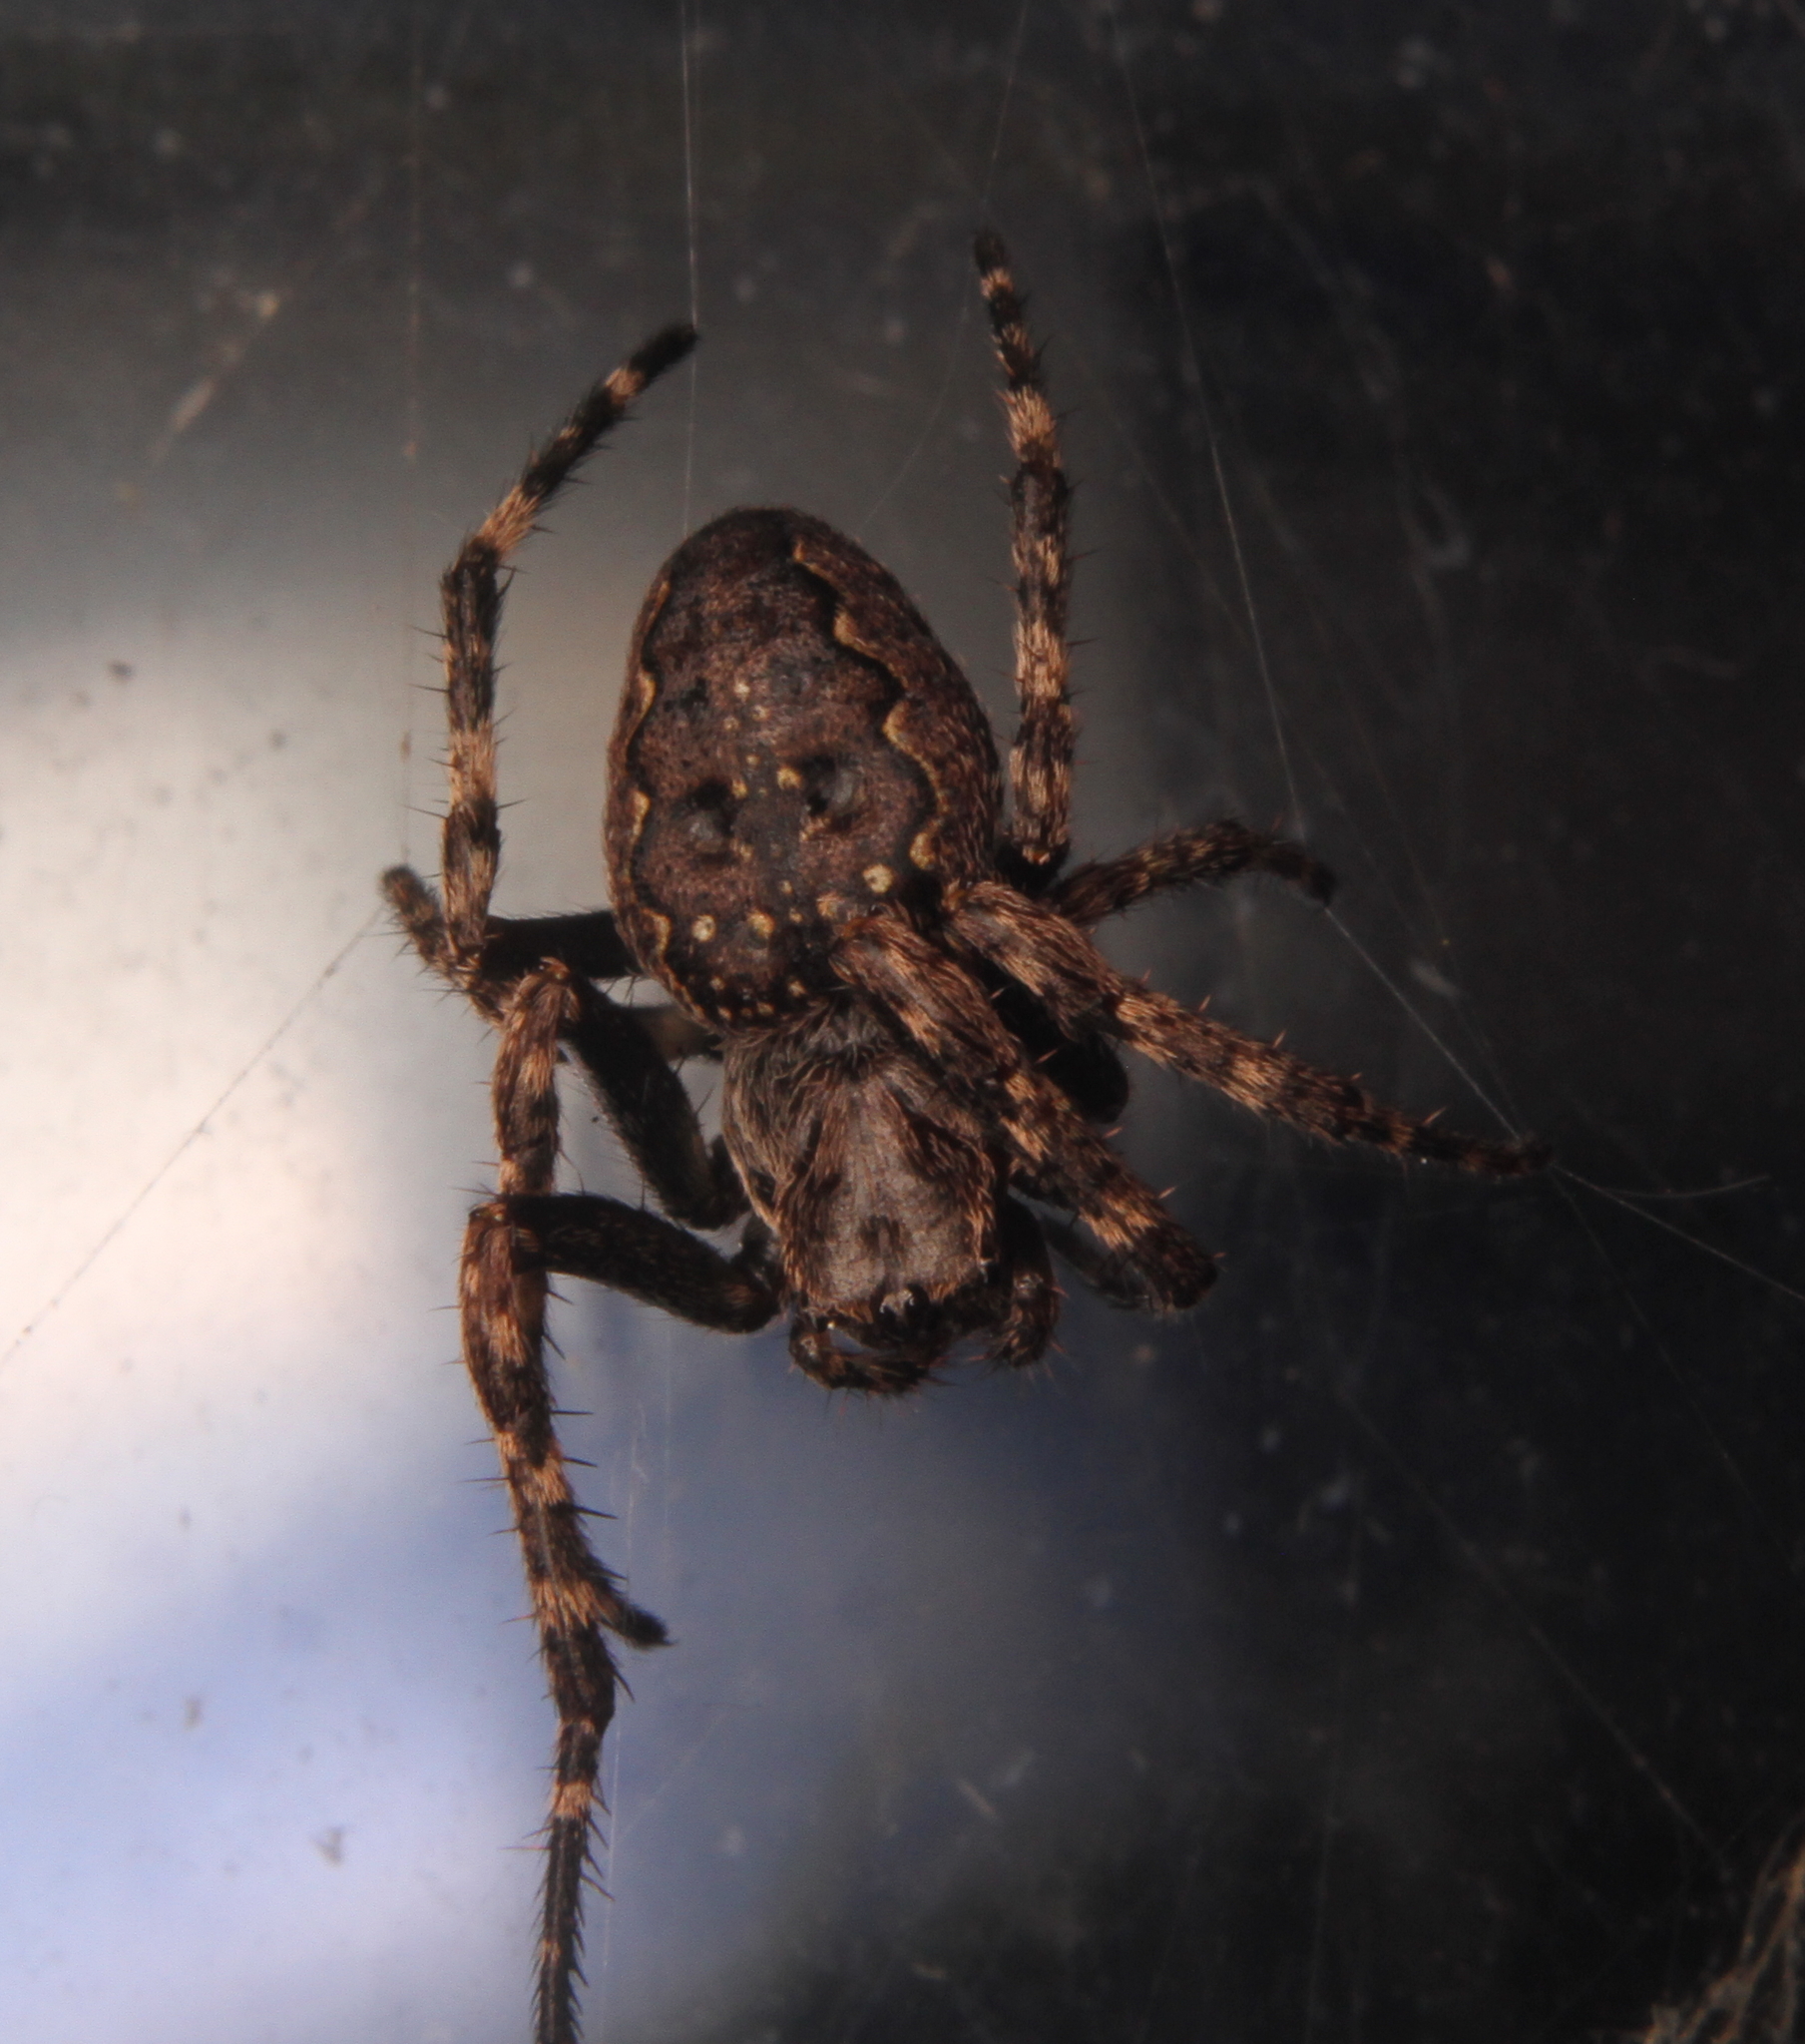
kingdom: Animalia
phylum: Arthropoda
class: Arachnida
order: Araneae
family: Araneidae
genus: Nuctenea
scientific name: Nuctenea umbratica
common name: Toad spider
